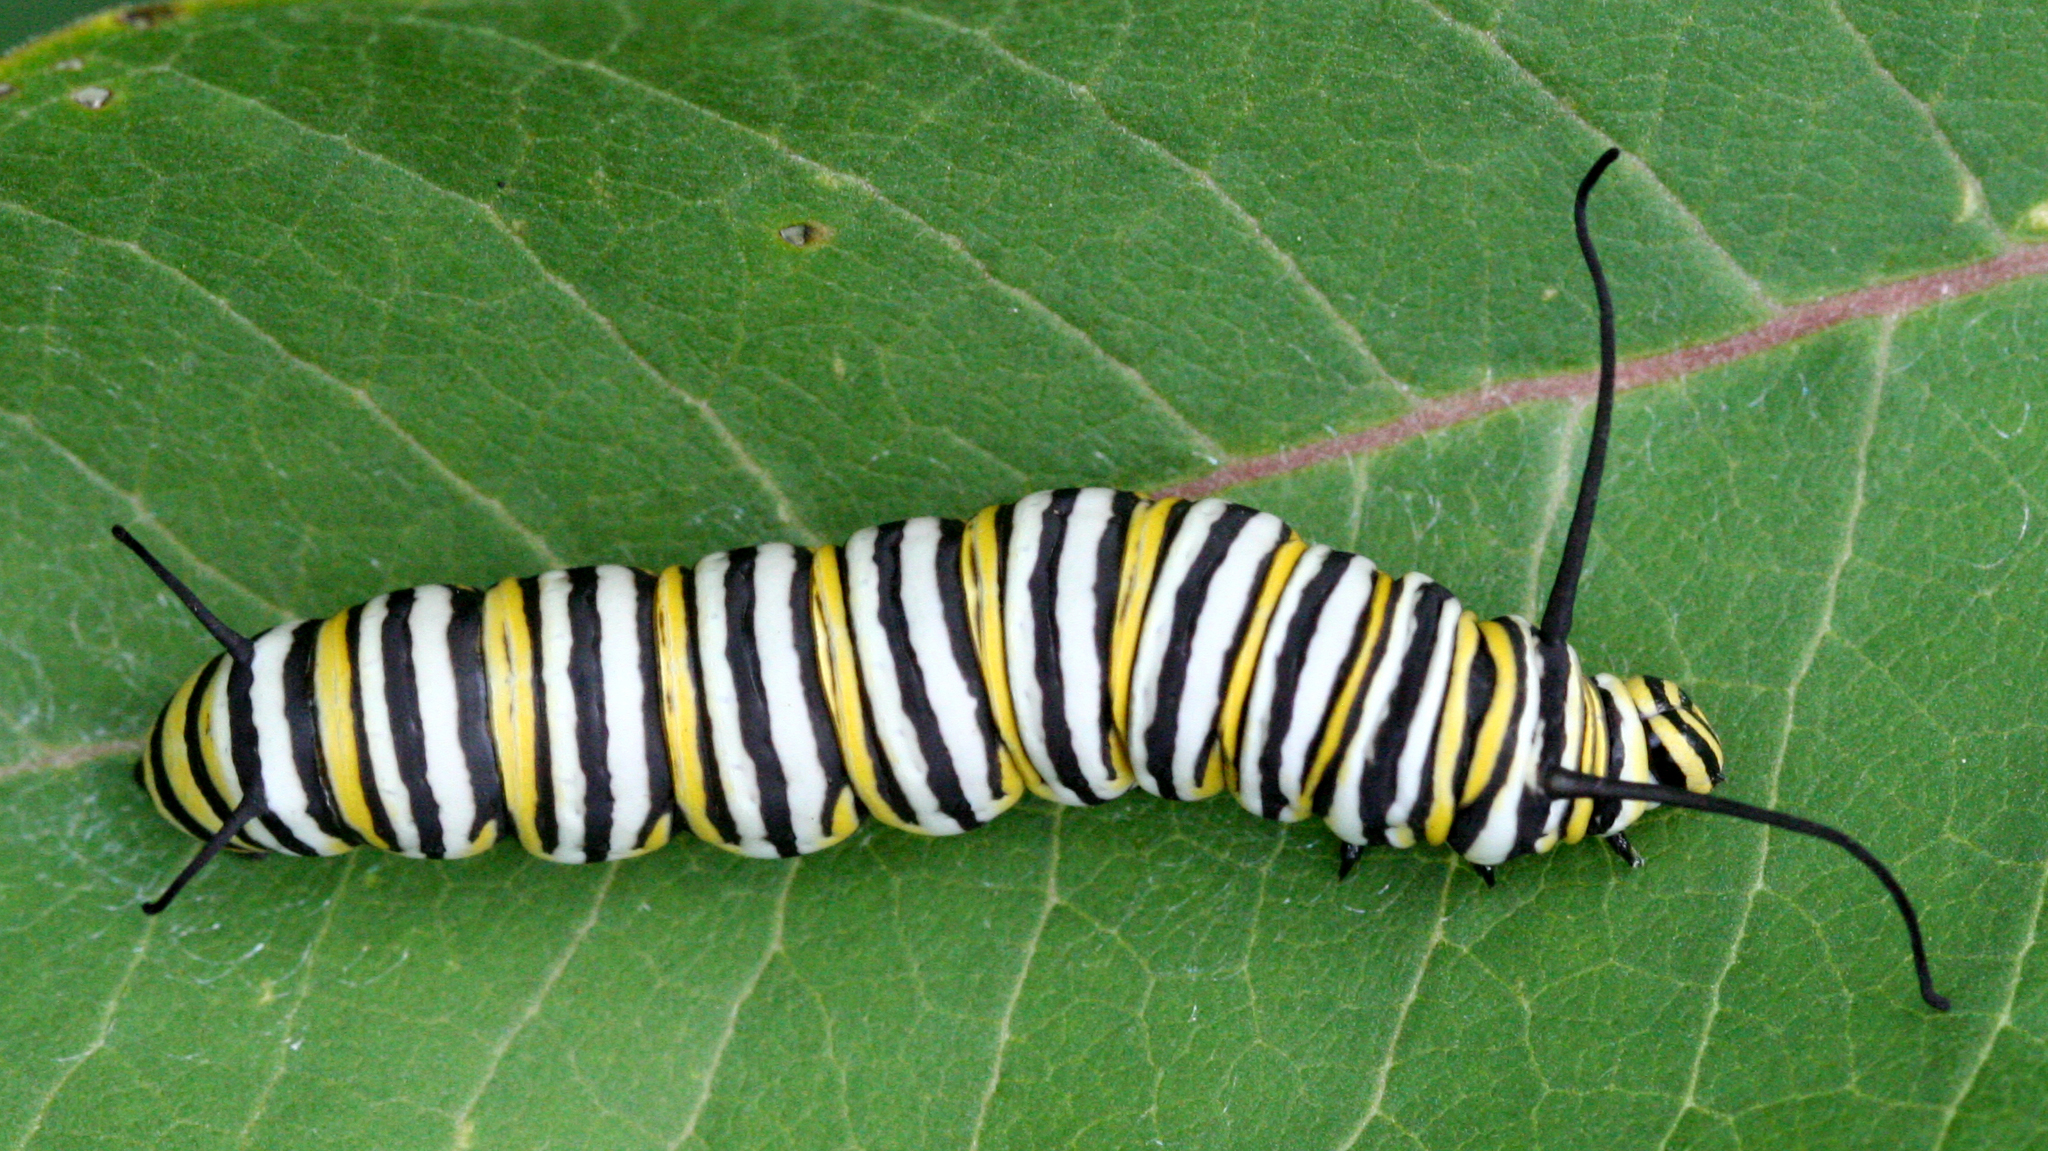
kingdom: Animalia
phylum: Arthropoda
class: Insecta
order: Lepidoptera
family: Nymphalidae
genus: Danaus
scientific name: Danaus plexippus
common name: Monarch
